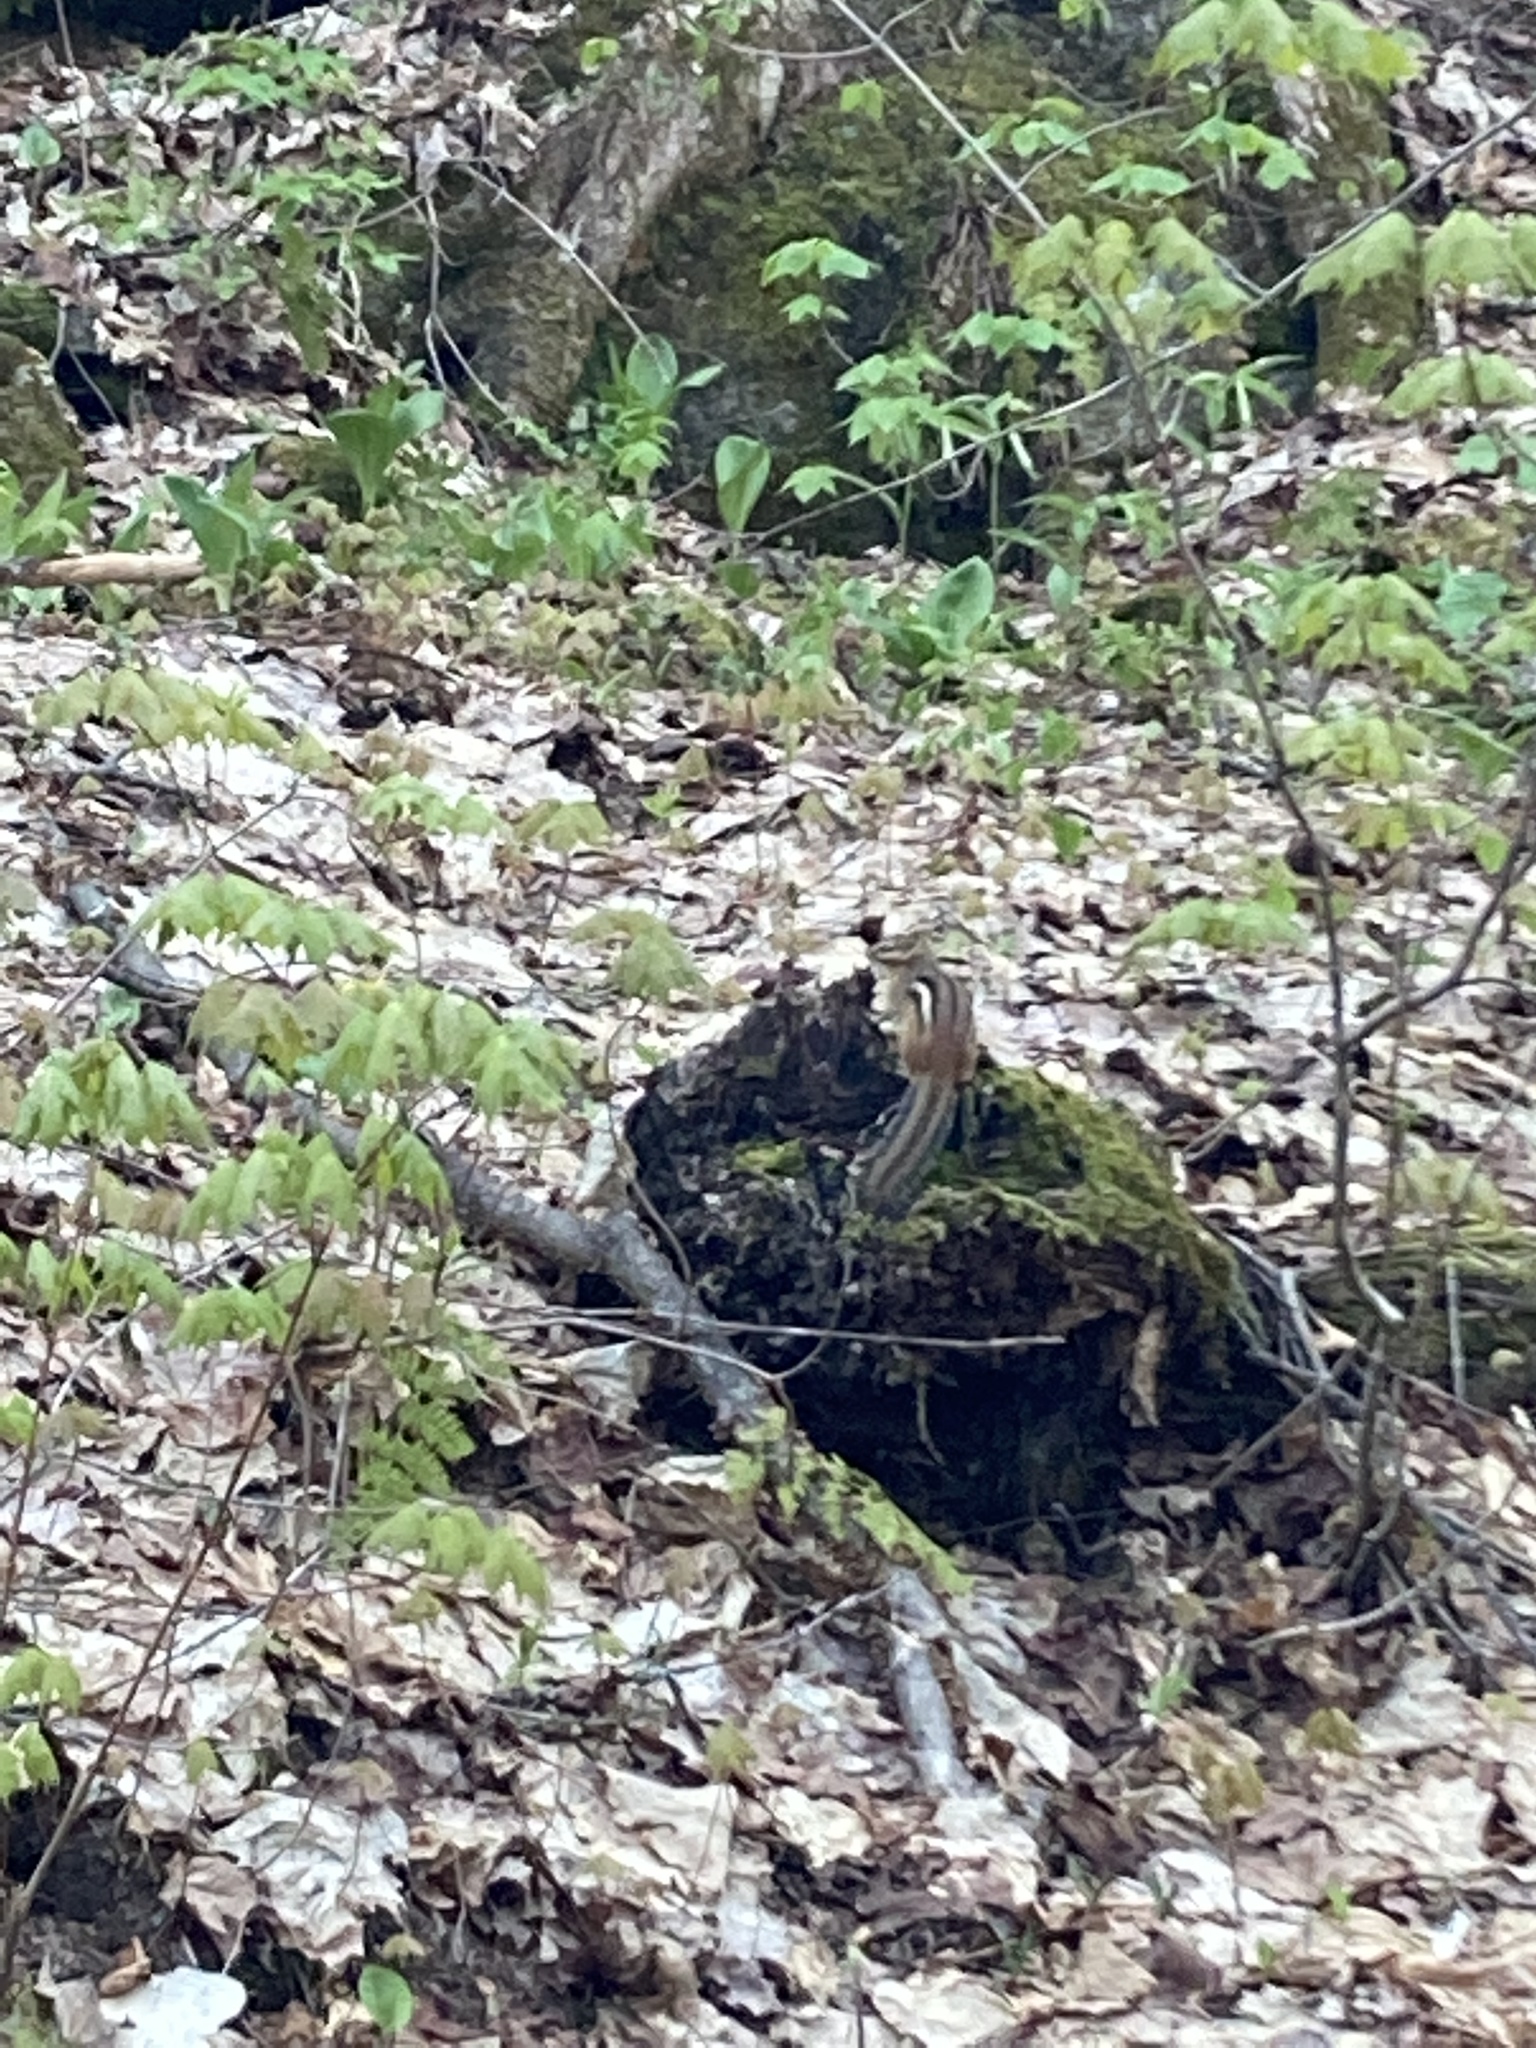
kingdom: Animalia
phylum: Chordata
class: Mammalia
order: Rodentia
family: Sciuridae
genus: Tamias
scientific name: Tamias striatus
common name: Eastern chipmunk
